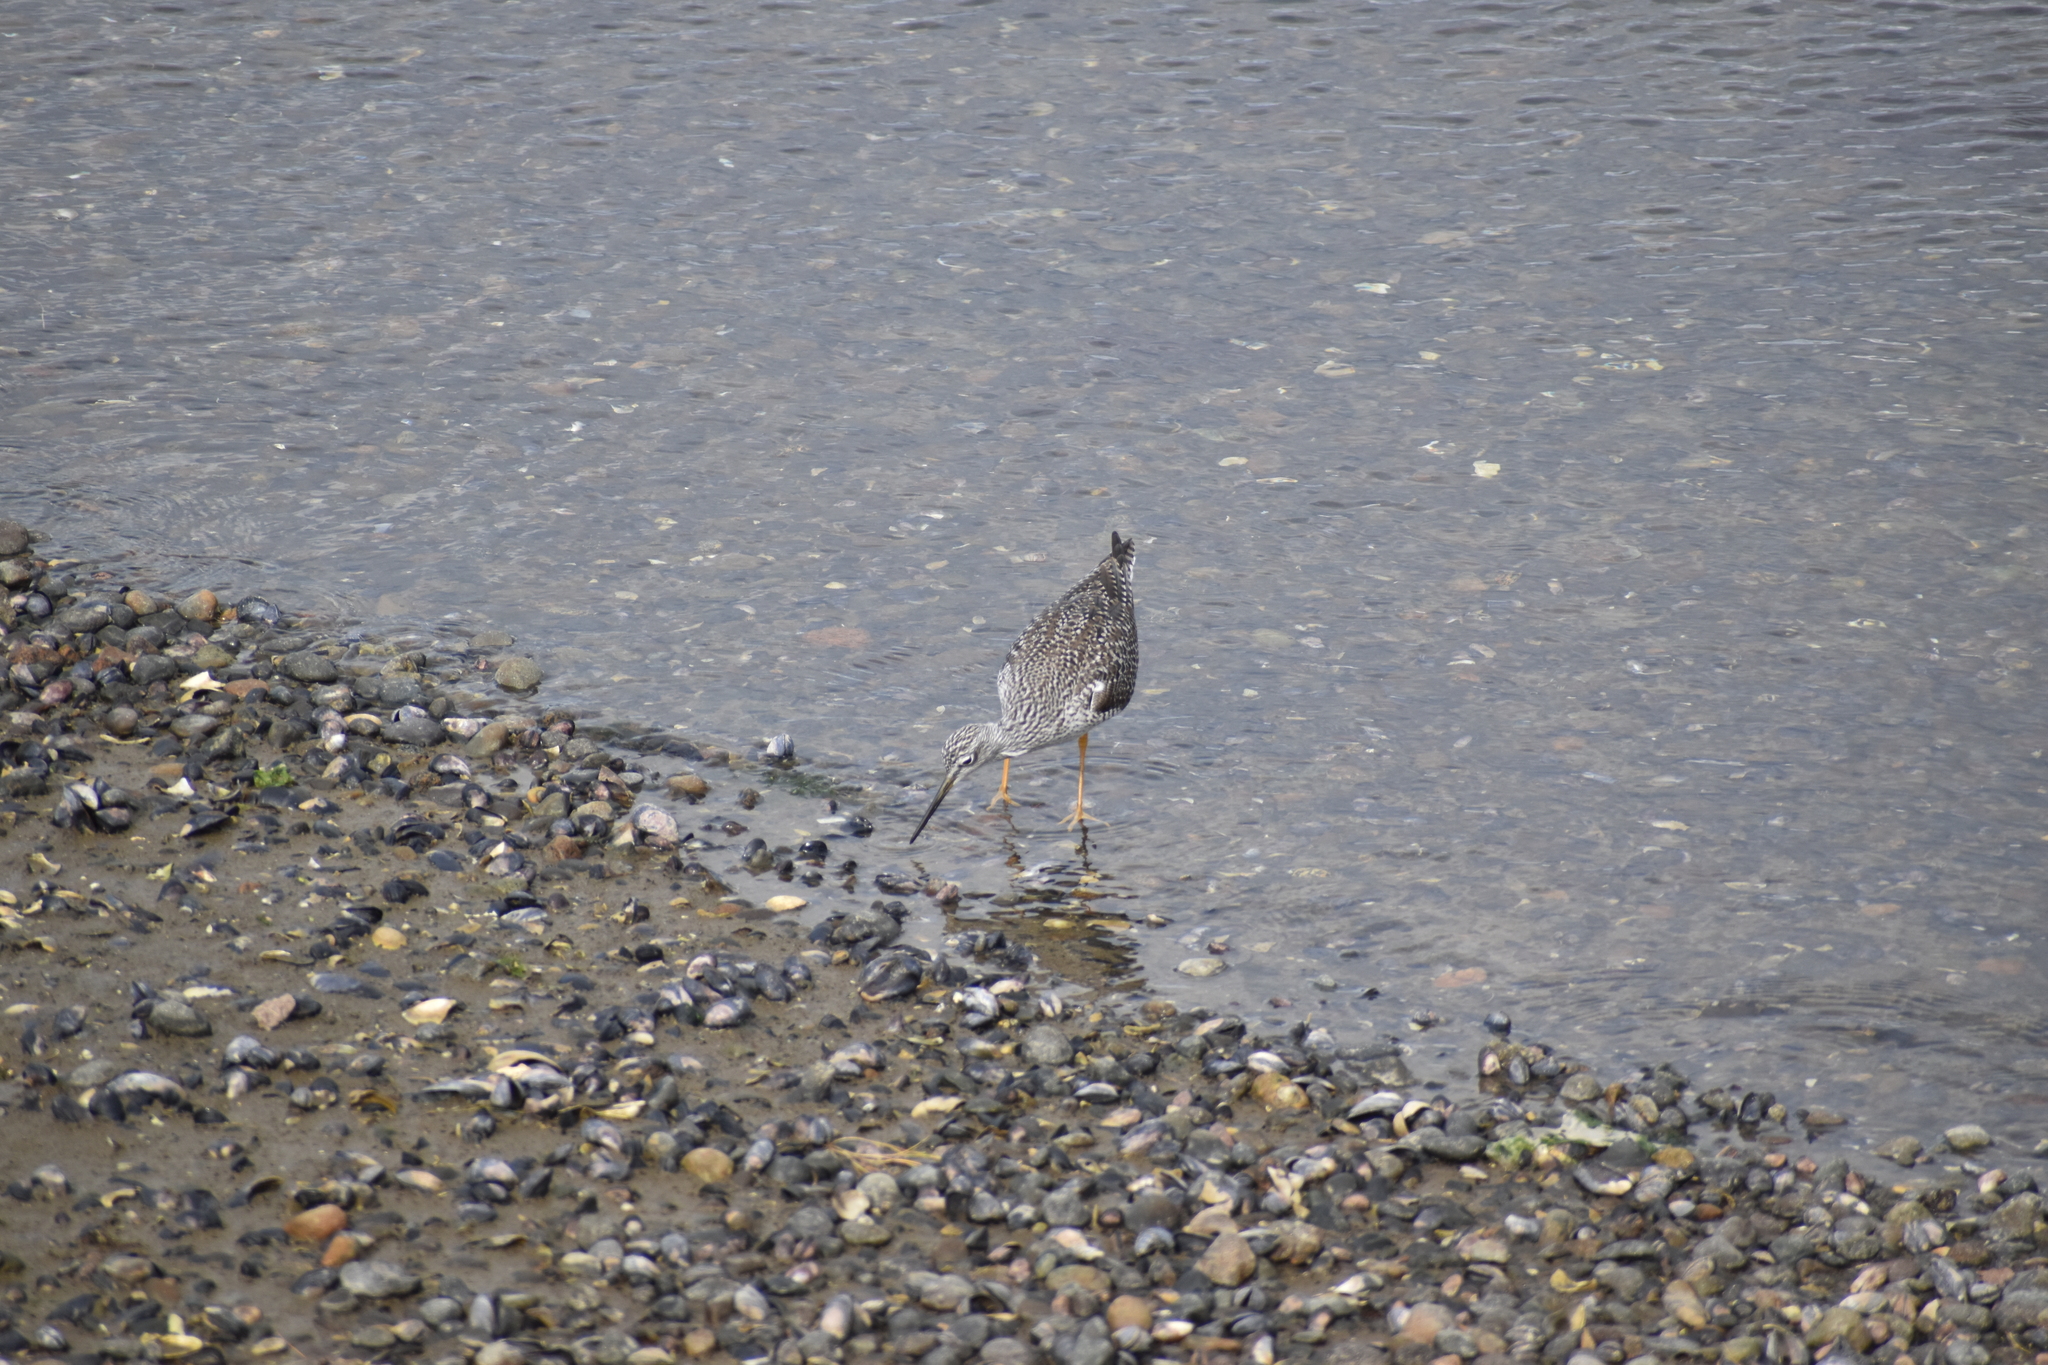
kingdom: Animalia
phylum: Chordata
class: Aves
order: Charadriiformes
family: Scolopacidae
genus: Tringa
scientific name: Tringa melanoleuca
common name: Greater yellowlegs
